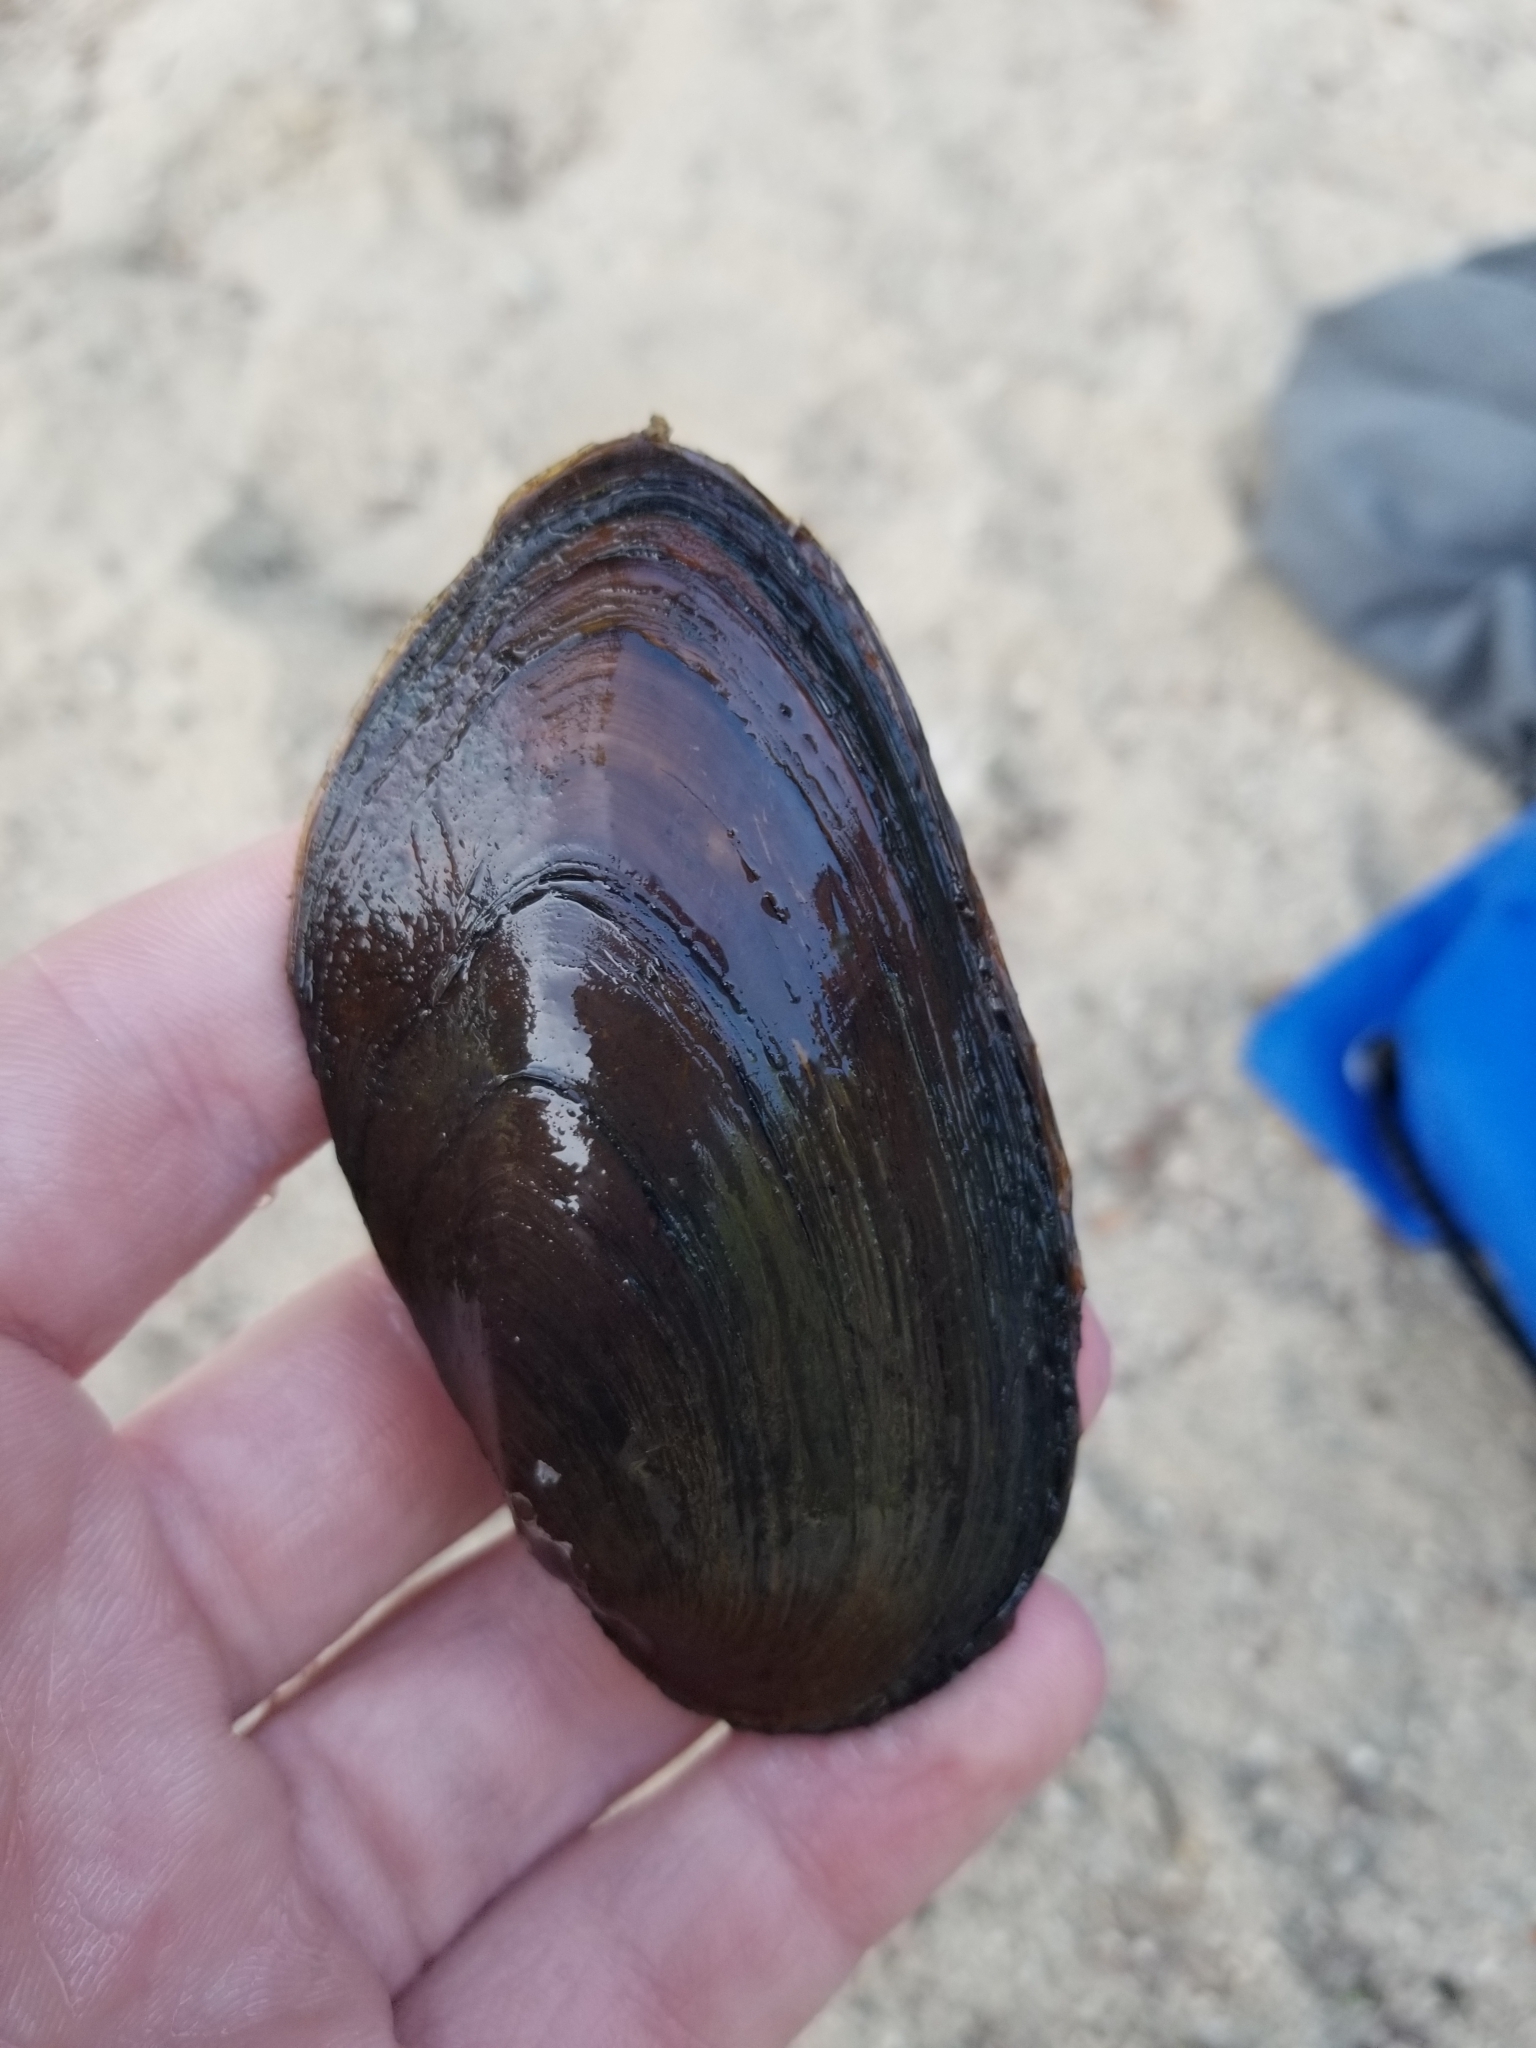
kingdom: Animalia
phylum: Mollusca
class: Bivalvia
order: Unionida
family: Unionidae
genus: Elliptio
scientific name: Elliptio complanata
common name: Eastern elliptio
